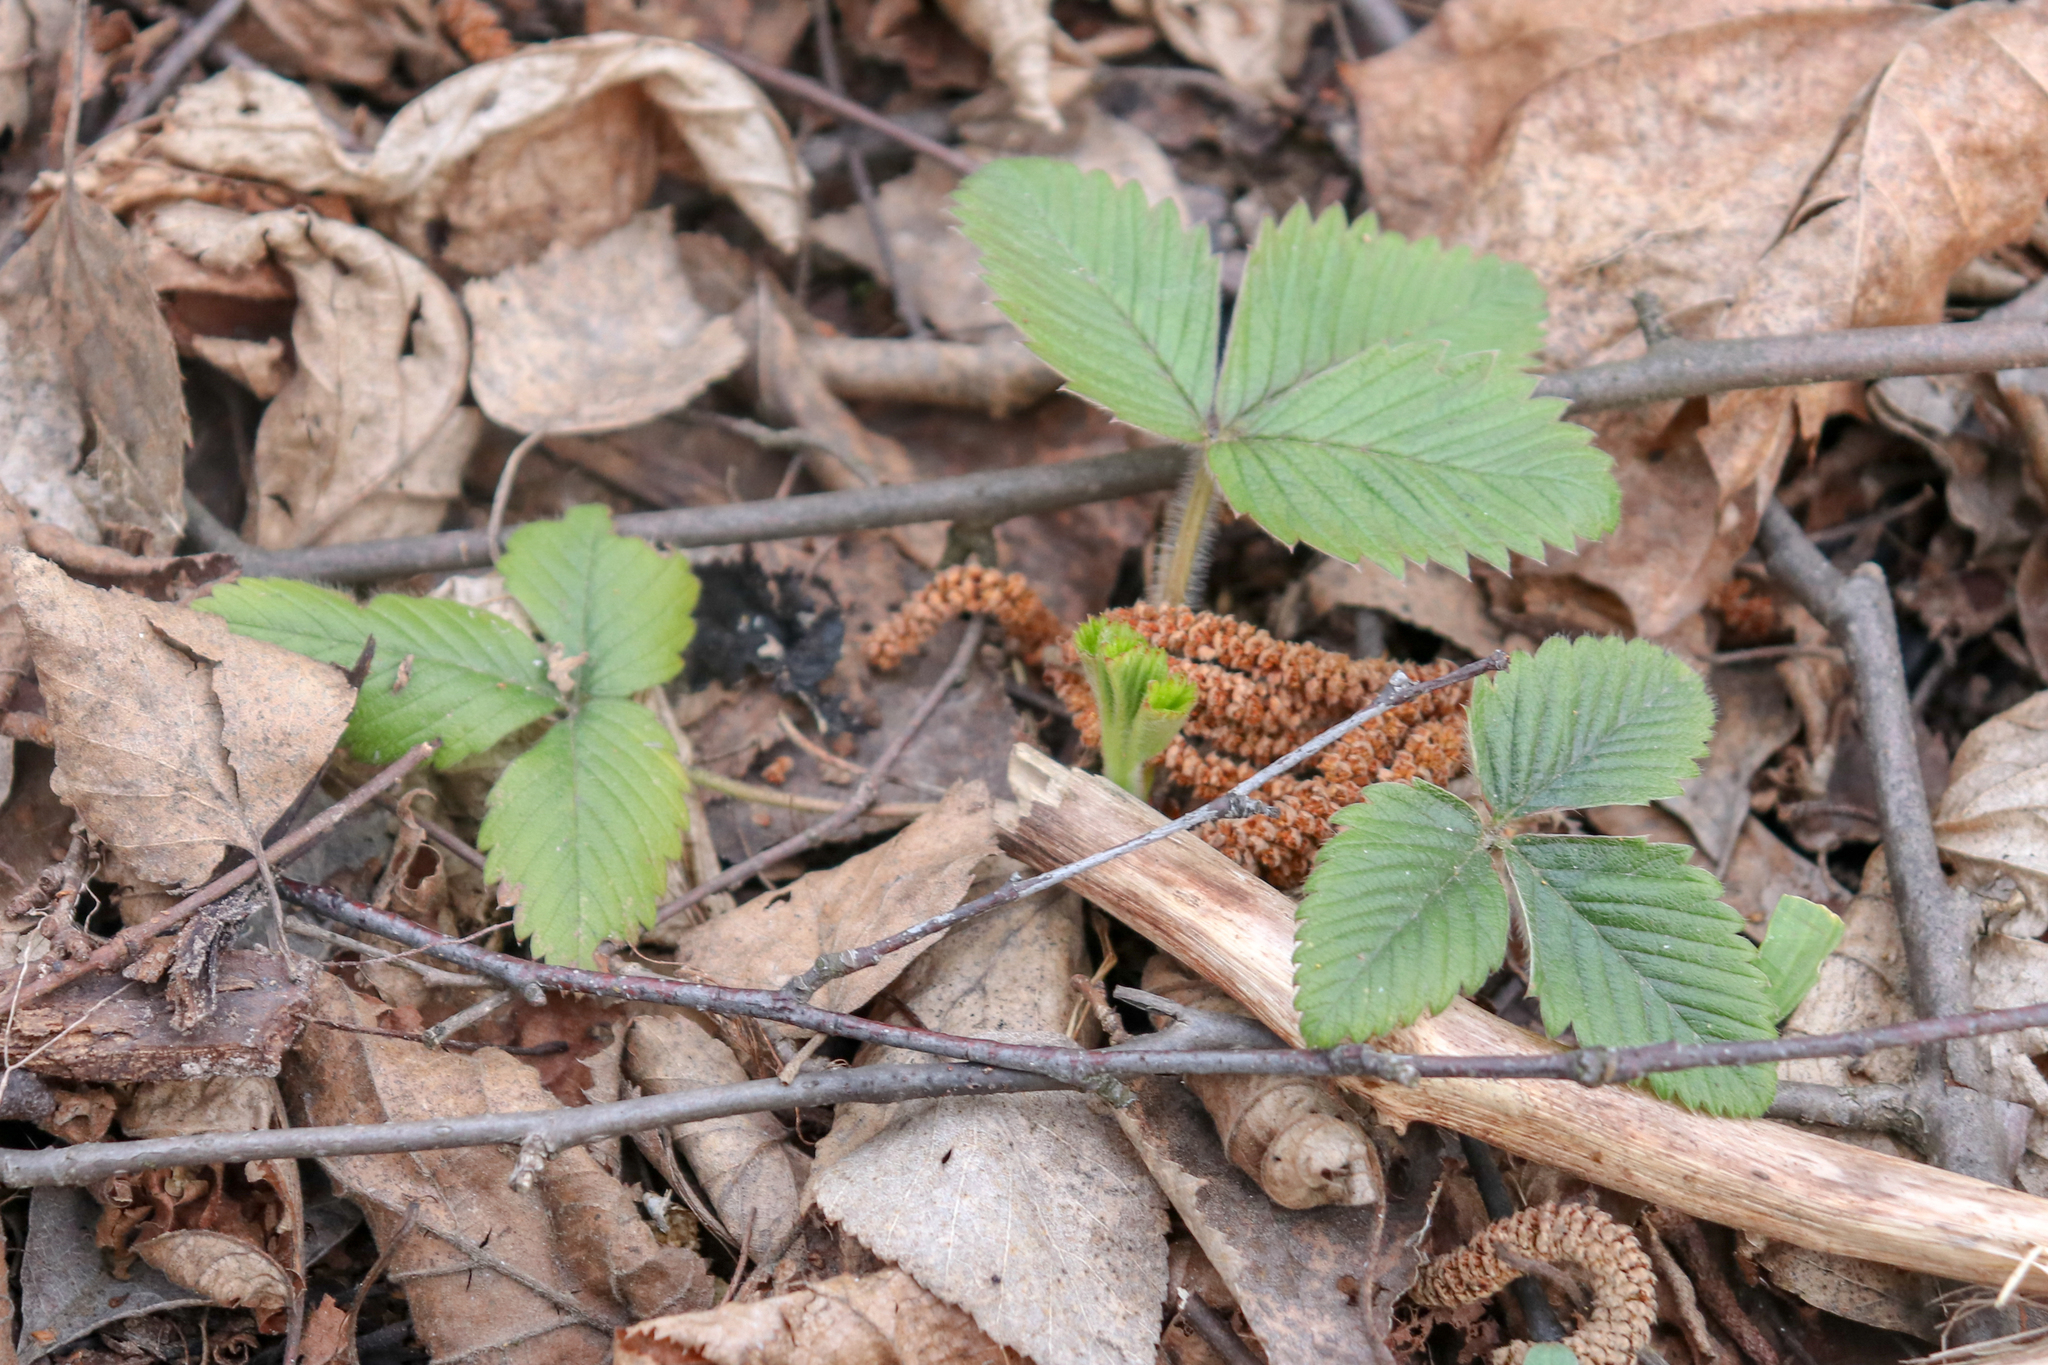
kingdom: Plantae
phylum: Tracheophyta
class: Magnoliopsida
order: Rosales
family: Rosaceae
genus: Fragaria
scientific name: Fragaria vesca
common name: Wild strawberry
